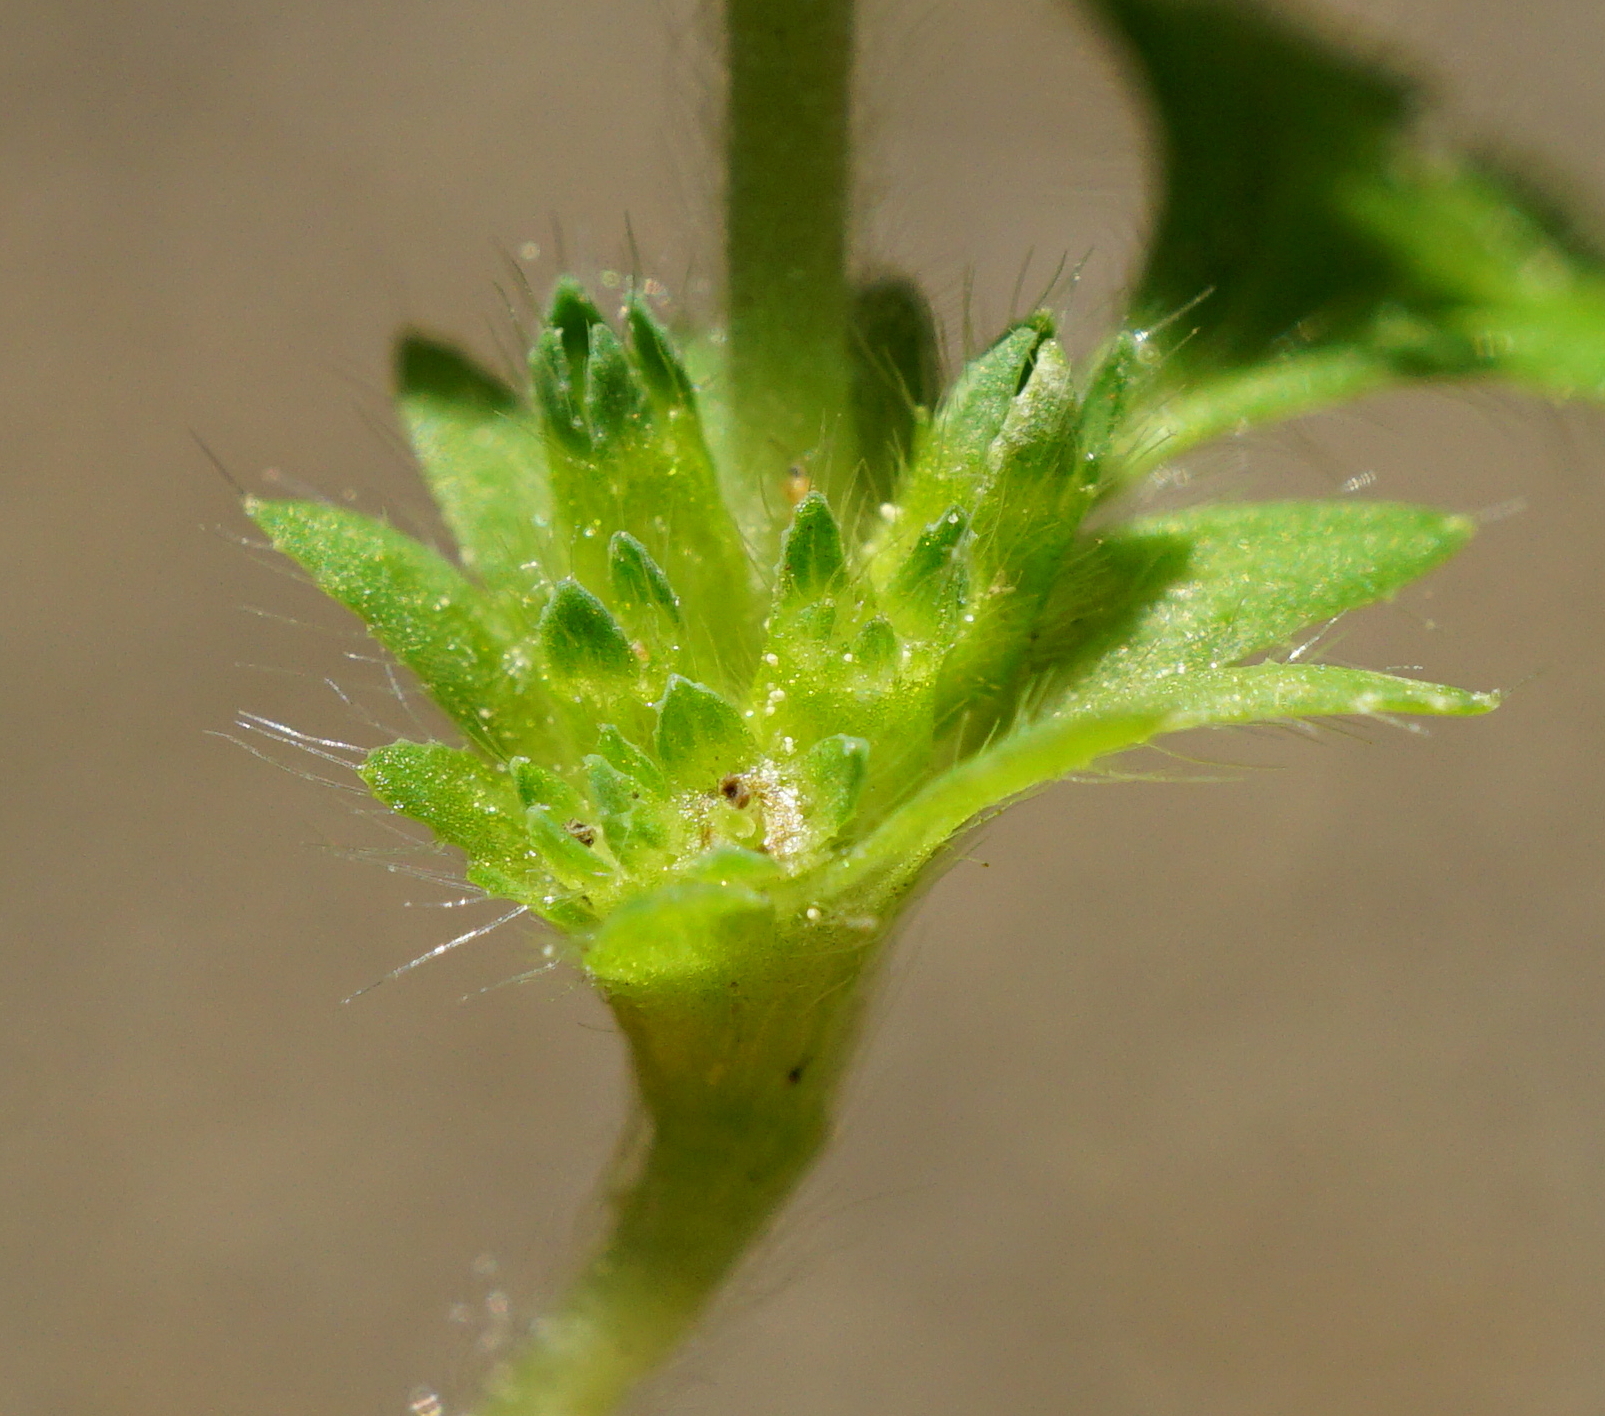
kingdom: Plantae
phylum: Tracheophyta
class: Magnoliopsida
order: Rosales
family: Rosaceae
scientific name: Rosaceae
